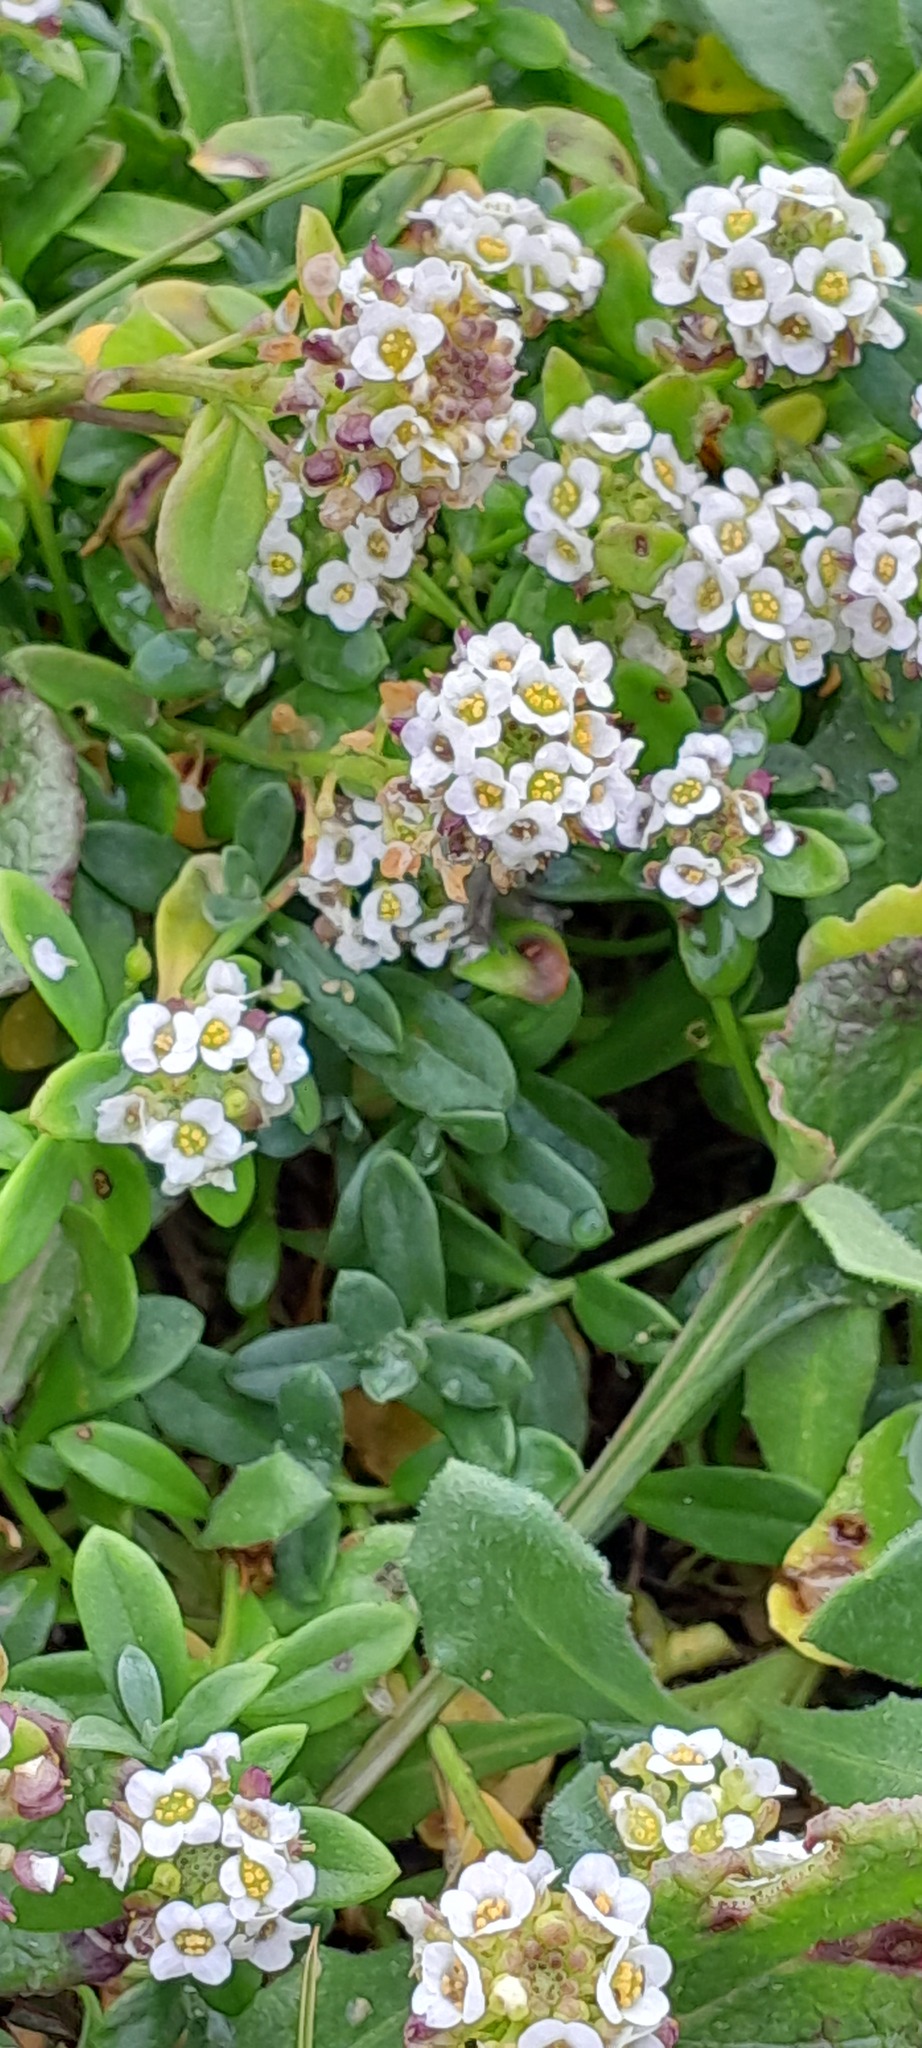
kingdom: Plantae
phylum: Tracheophyta
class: Magnoliopsida
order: Brassicales
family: Brassicaceae
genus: Lobularia
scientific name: Lobularia maritima
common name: Sweet alison
